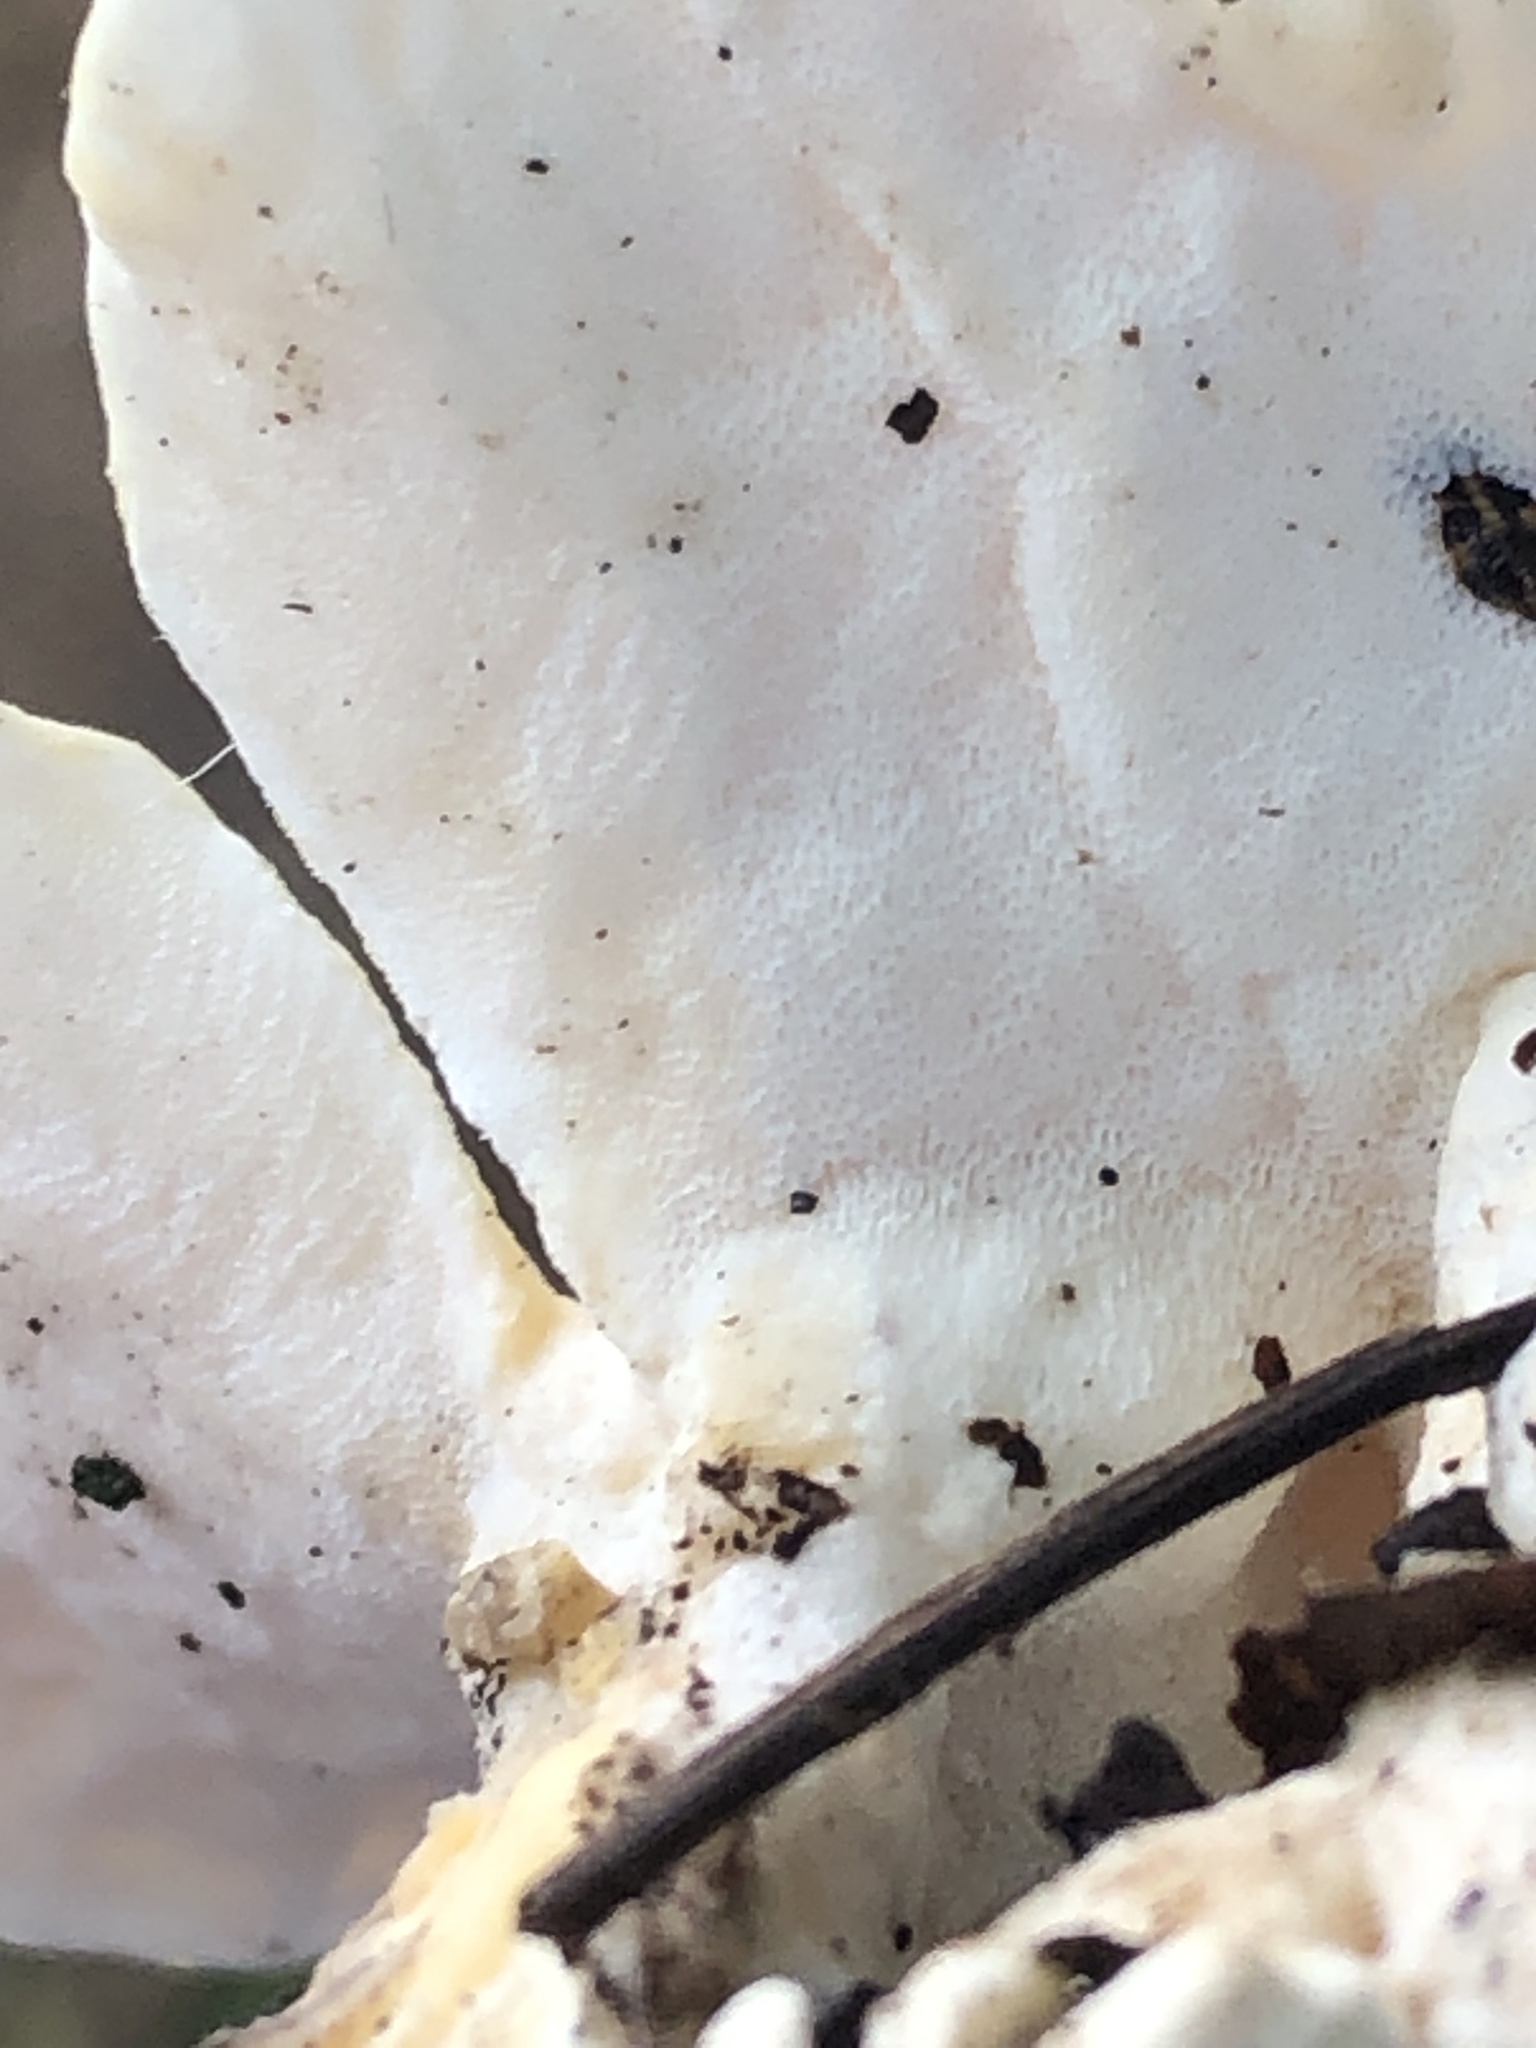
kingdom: Fungi
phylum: Basidiomycota
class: Agaricomycetes
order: Polyporales
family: Steccherinaceae
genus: Loweomyces
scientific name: Loweomyces fractipes
